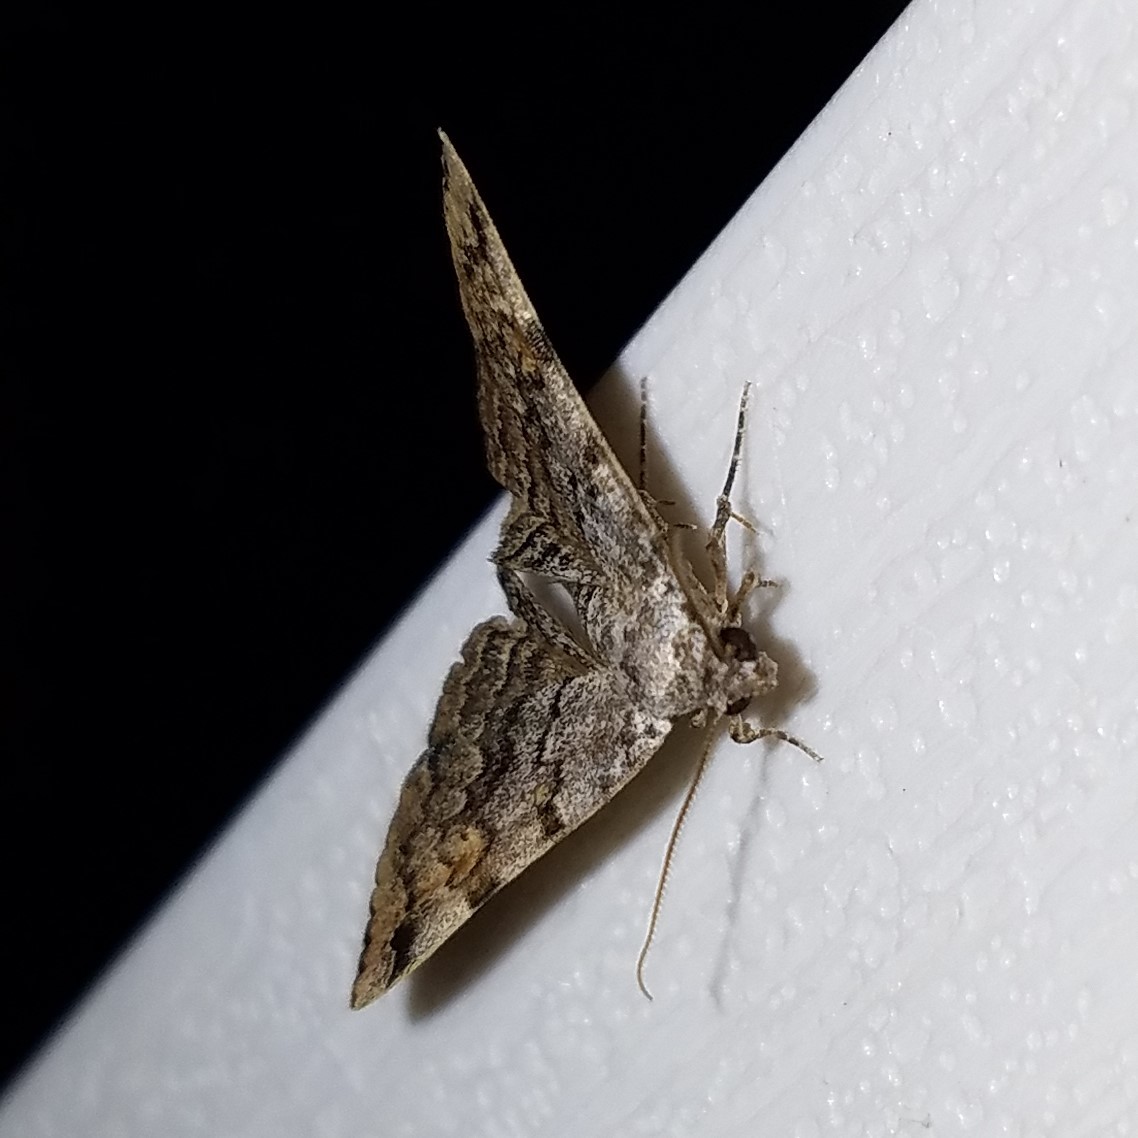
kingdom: Animalia
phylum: Arthropoda
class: Insecta
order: Lepidoptera
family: Erebidae
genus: Idia
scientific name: Idia americalis
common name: American idia moth
